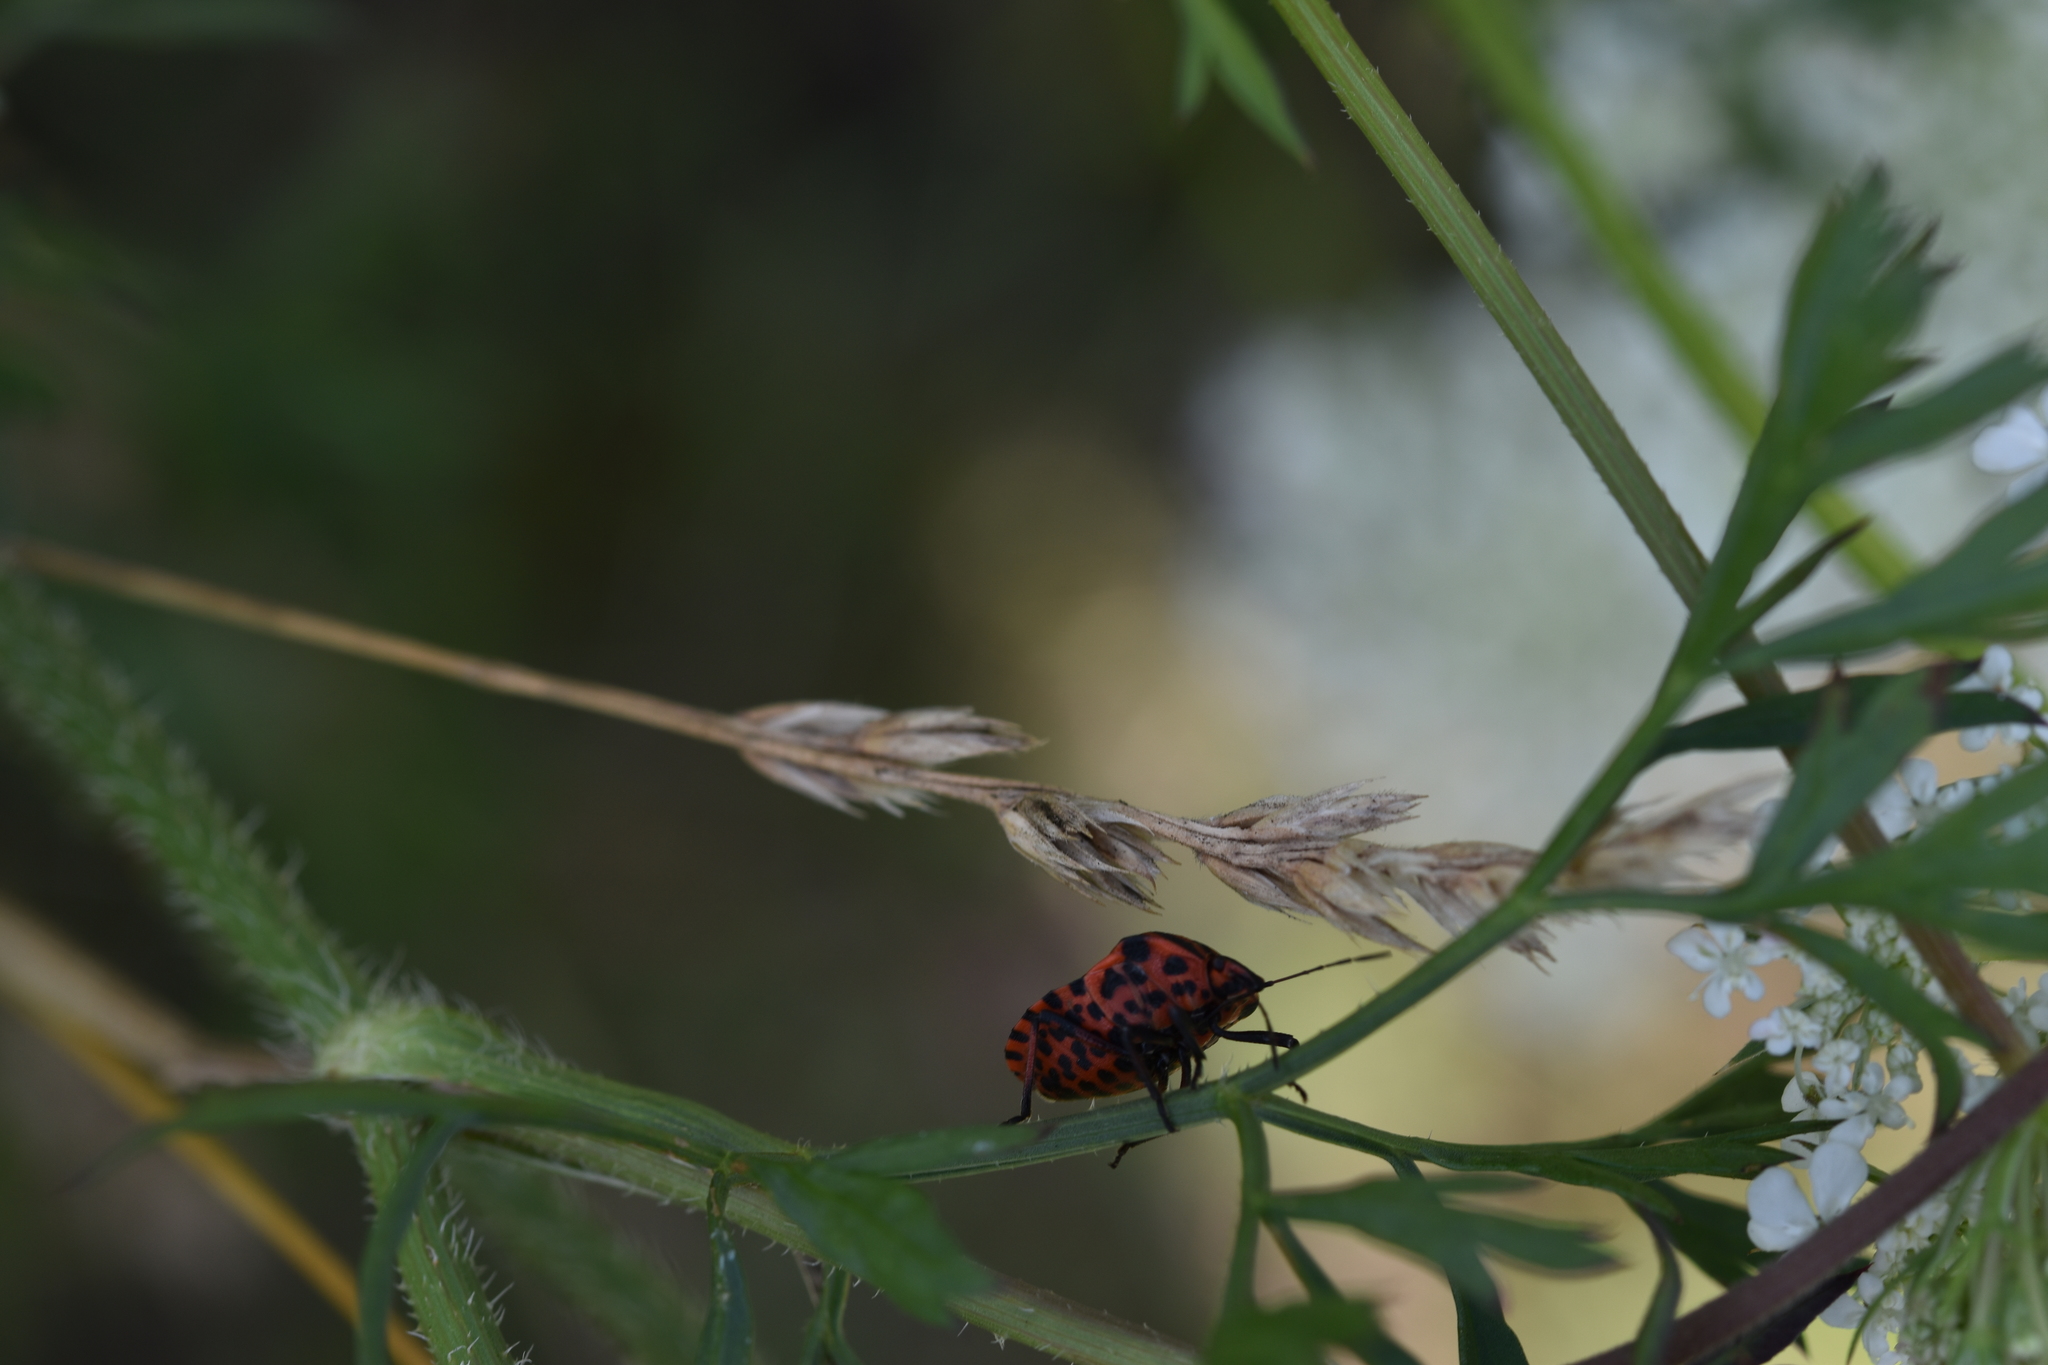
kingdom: Animalia
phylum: Arthropoda
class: Insecta
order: Hemiptera
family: Pentatomidae
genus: Graphosoma
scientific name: Graphosoma italicum
